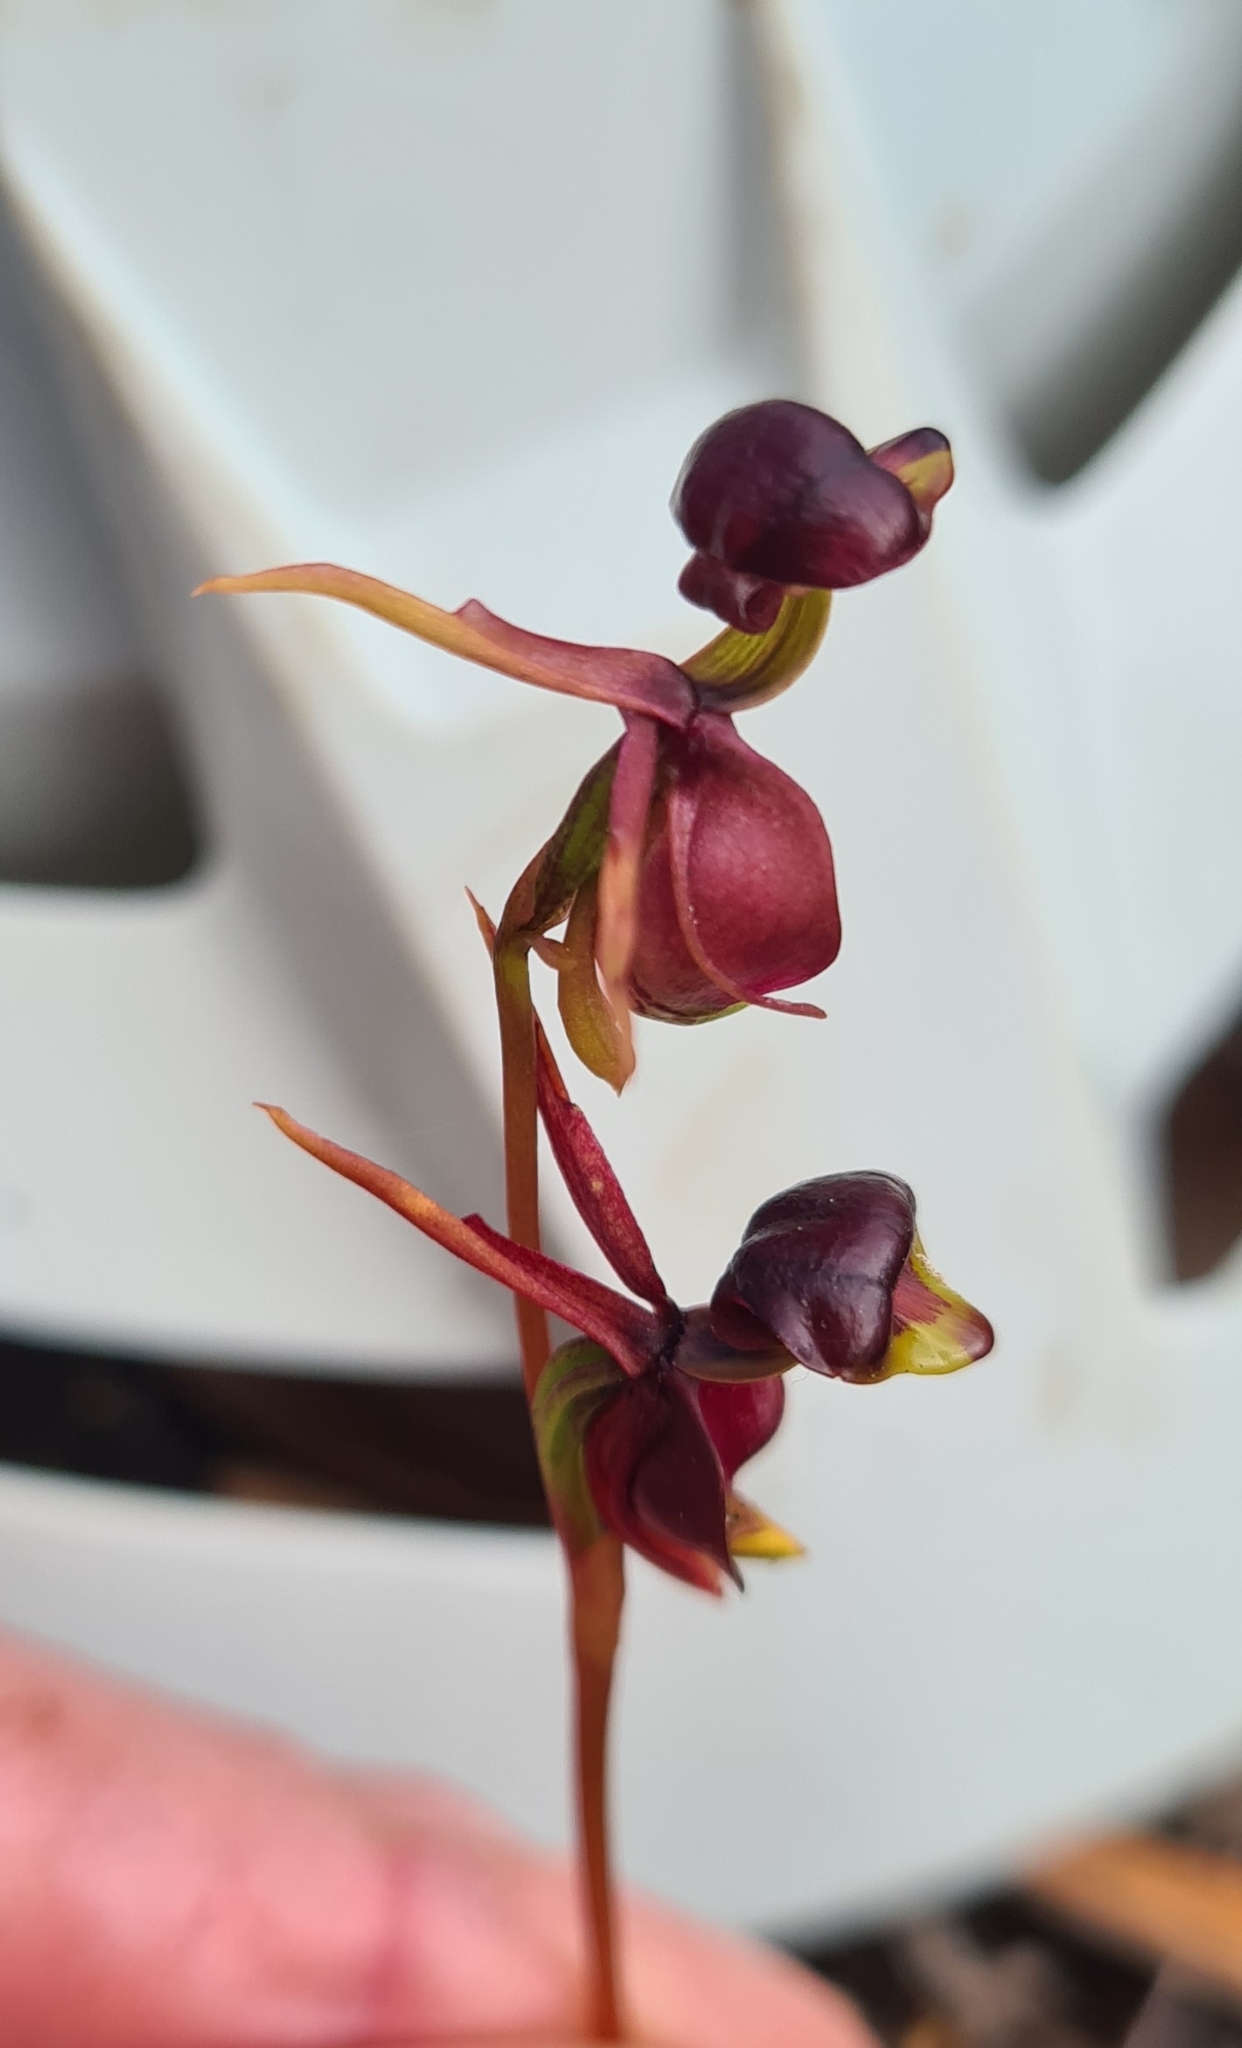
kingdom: Plantae
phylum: Tracheophyta
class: Liliopsida
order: Asparagales
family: Orchidaceae
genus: Caleana
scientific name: Caleana major
